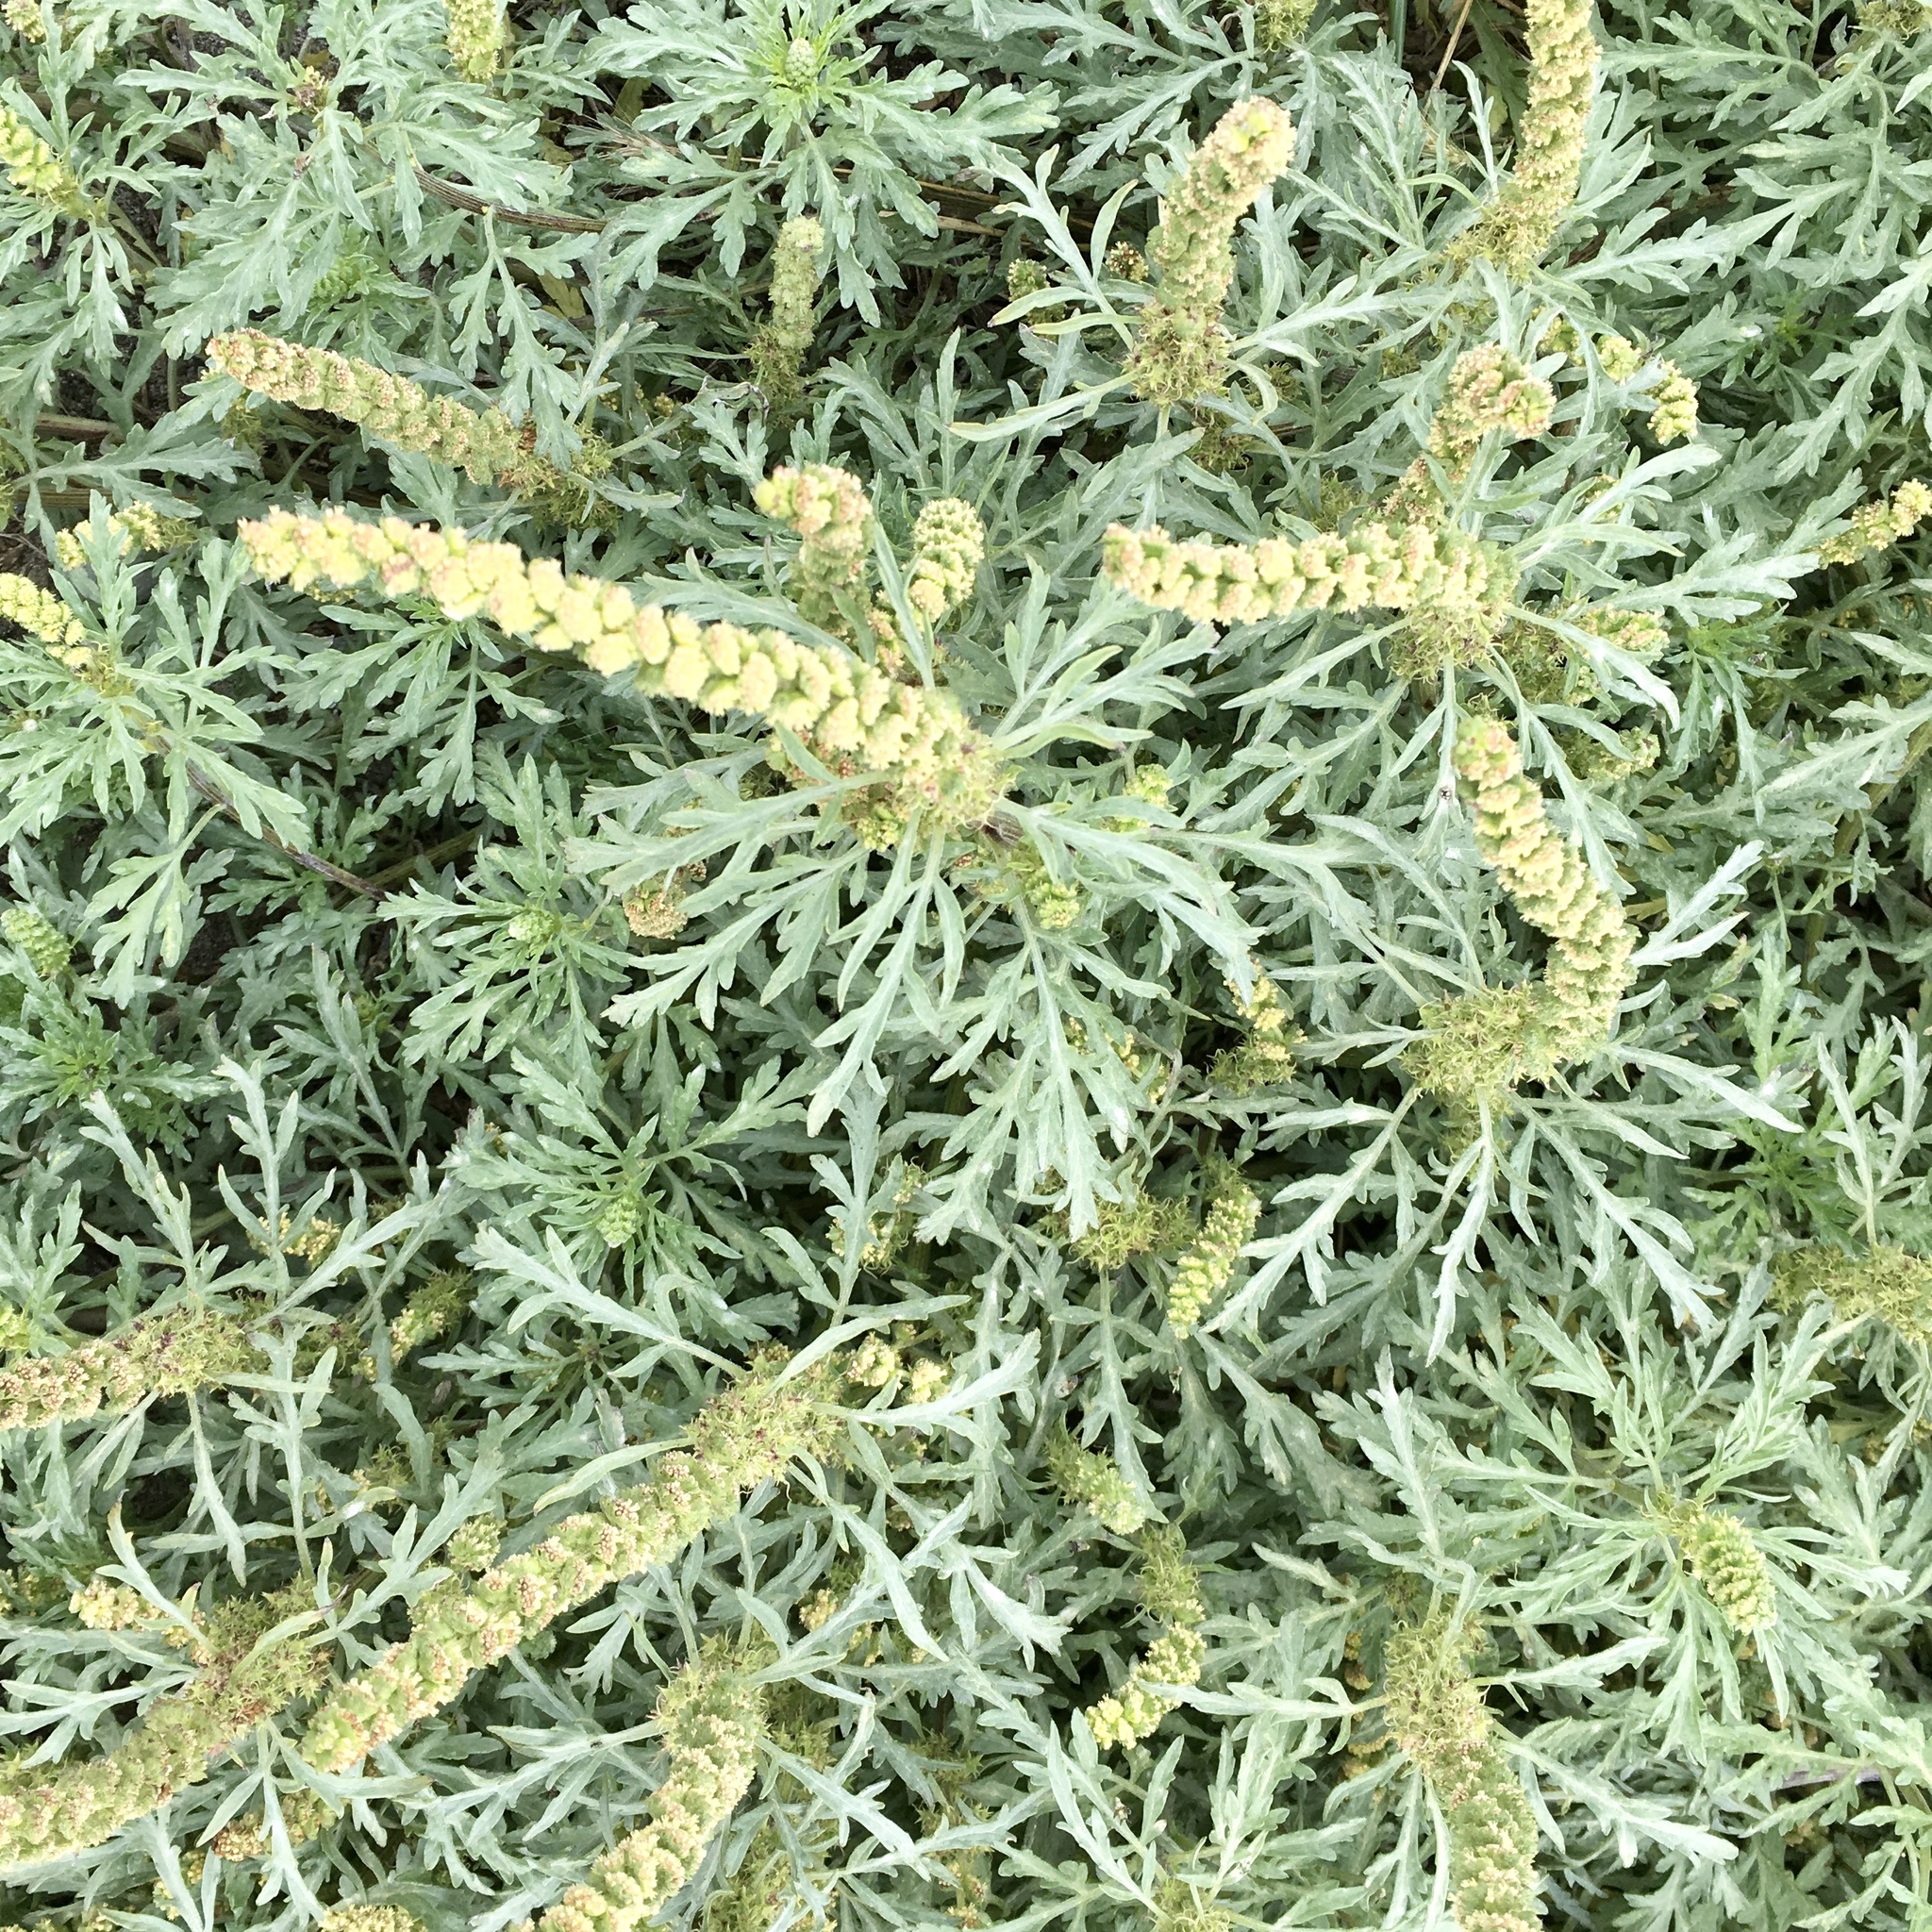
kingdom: Plantae
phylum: Tracheophyta
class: Magnoliopsida
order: Asterales
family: Asteraceae
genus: Ambrosia
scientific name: Ambrosia chamissonis
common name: Beachbur
